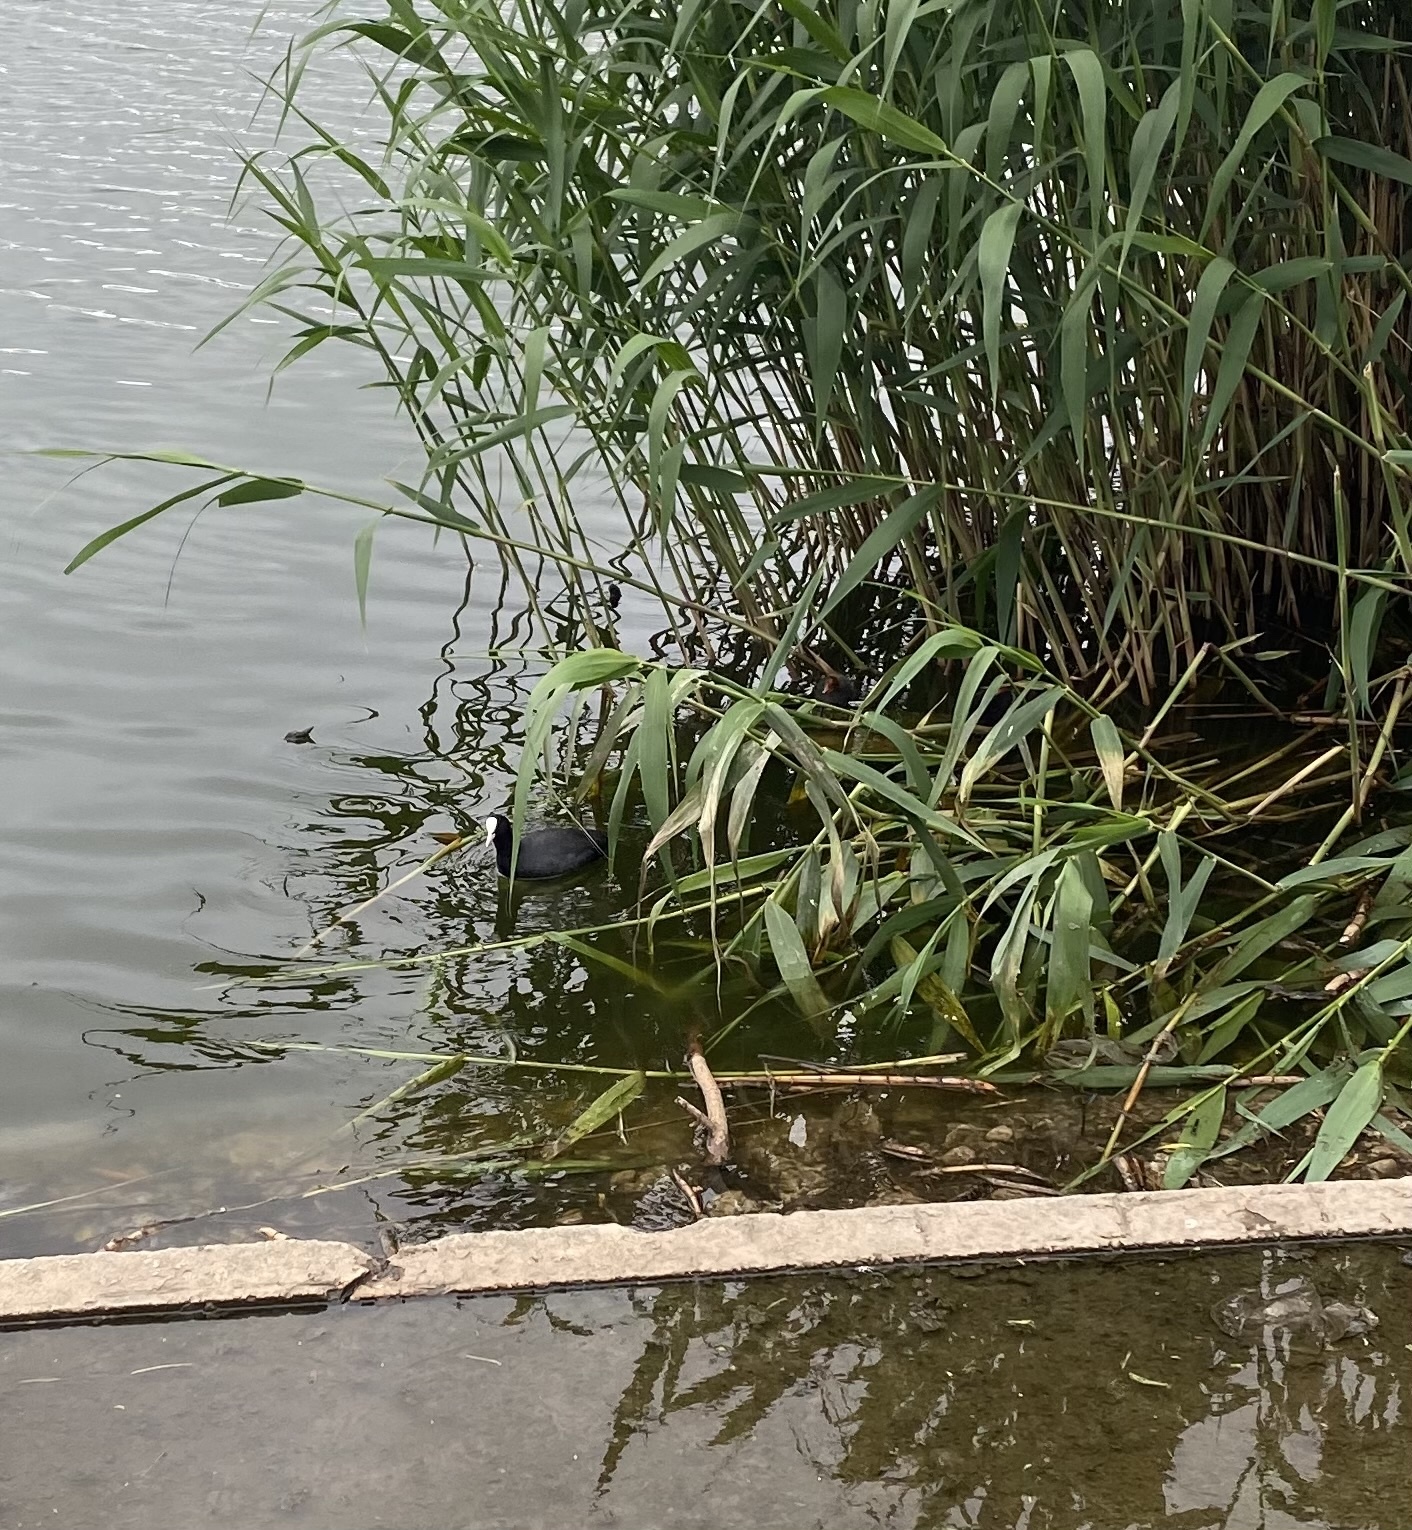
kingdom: Animalia
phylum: Chordata
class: Aves
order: Gruiformes
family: Rallidae
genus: Fulica
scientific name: Fulica atra
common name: Eurasian coot
